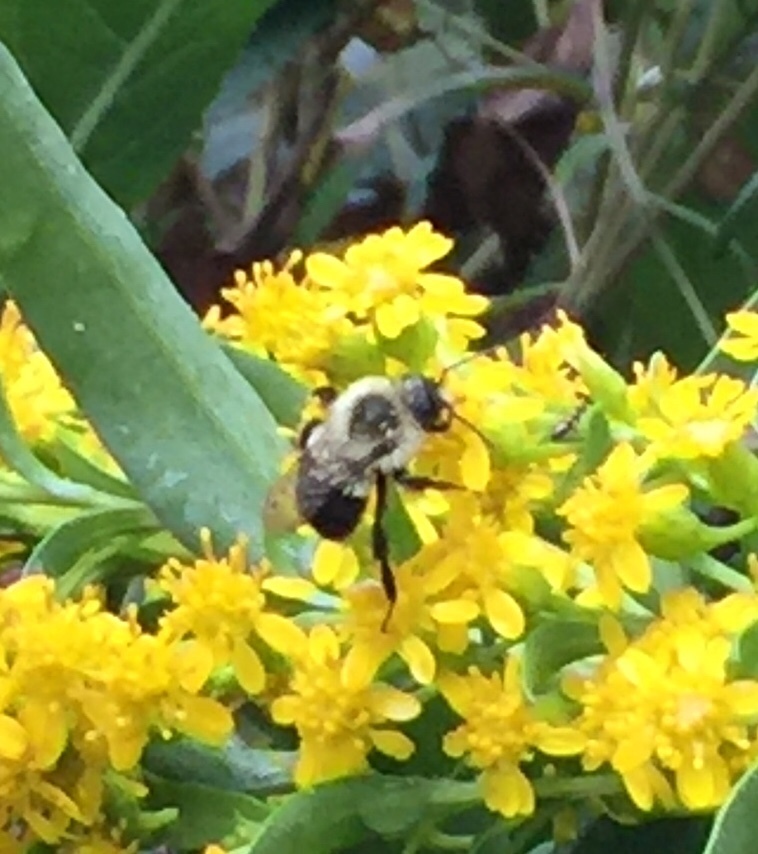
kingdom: Animalia
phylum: Arthropoda
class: Insecta
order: Hymenoptera
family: Apidae
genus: Bombus
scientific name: Bombus impatiens
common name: Common eastern bumble bee
